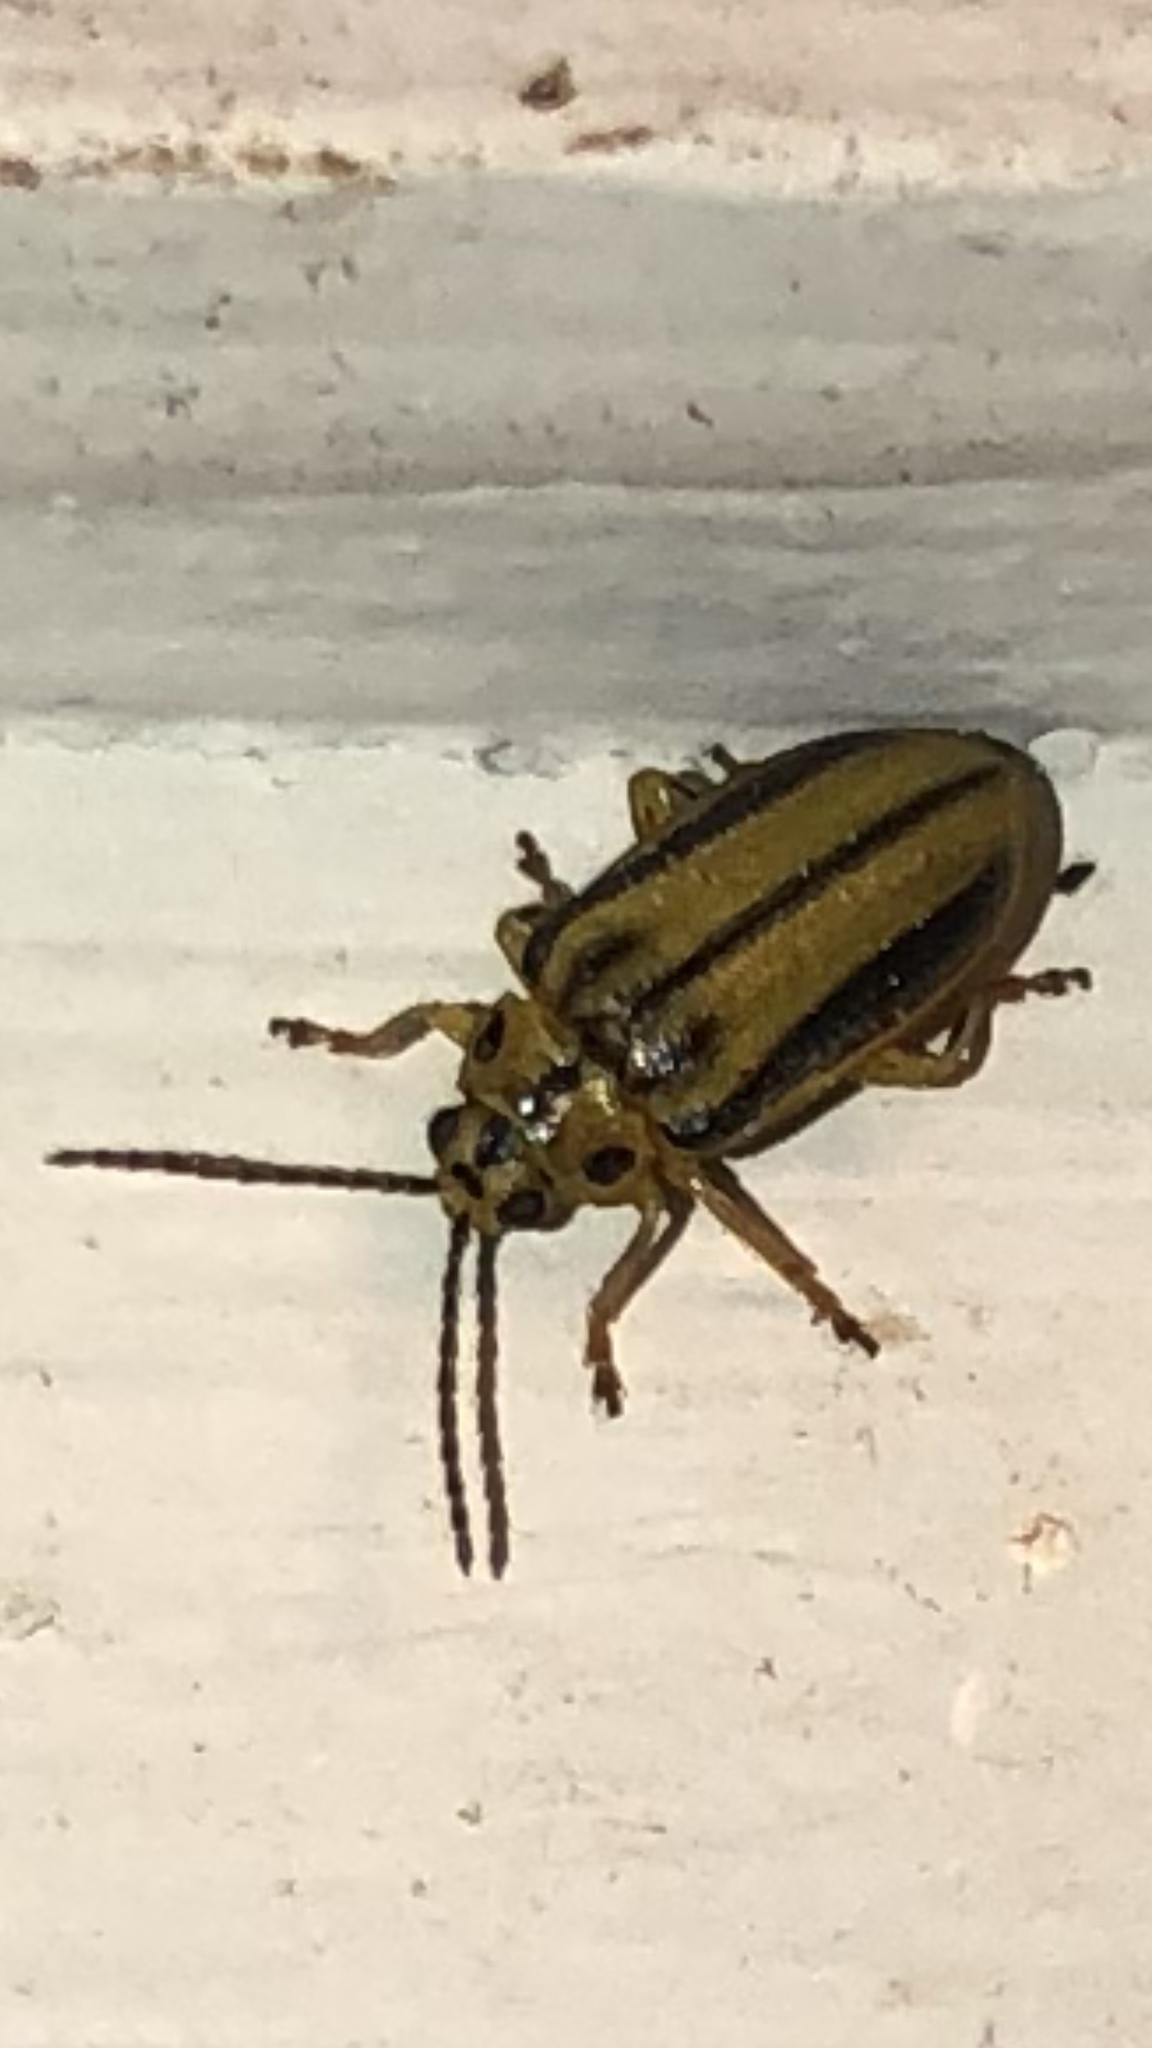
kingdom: Animalia
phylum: Arthropoda
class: Insecta
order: Coleoptera
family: Chrysomelidae
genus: Xanthogaleruca
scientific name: Xanthogaleruca luteola
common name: Elm leaf beetle
